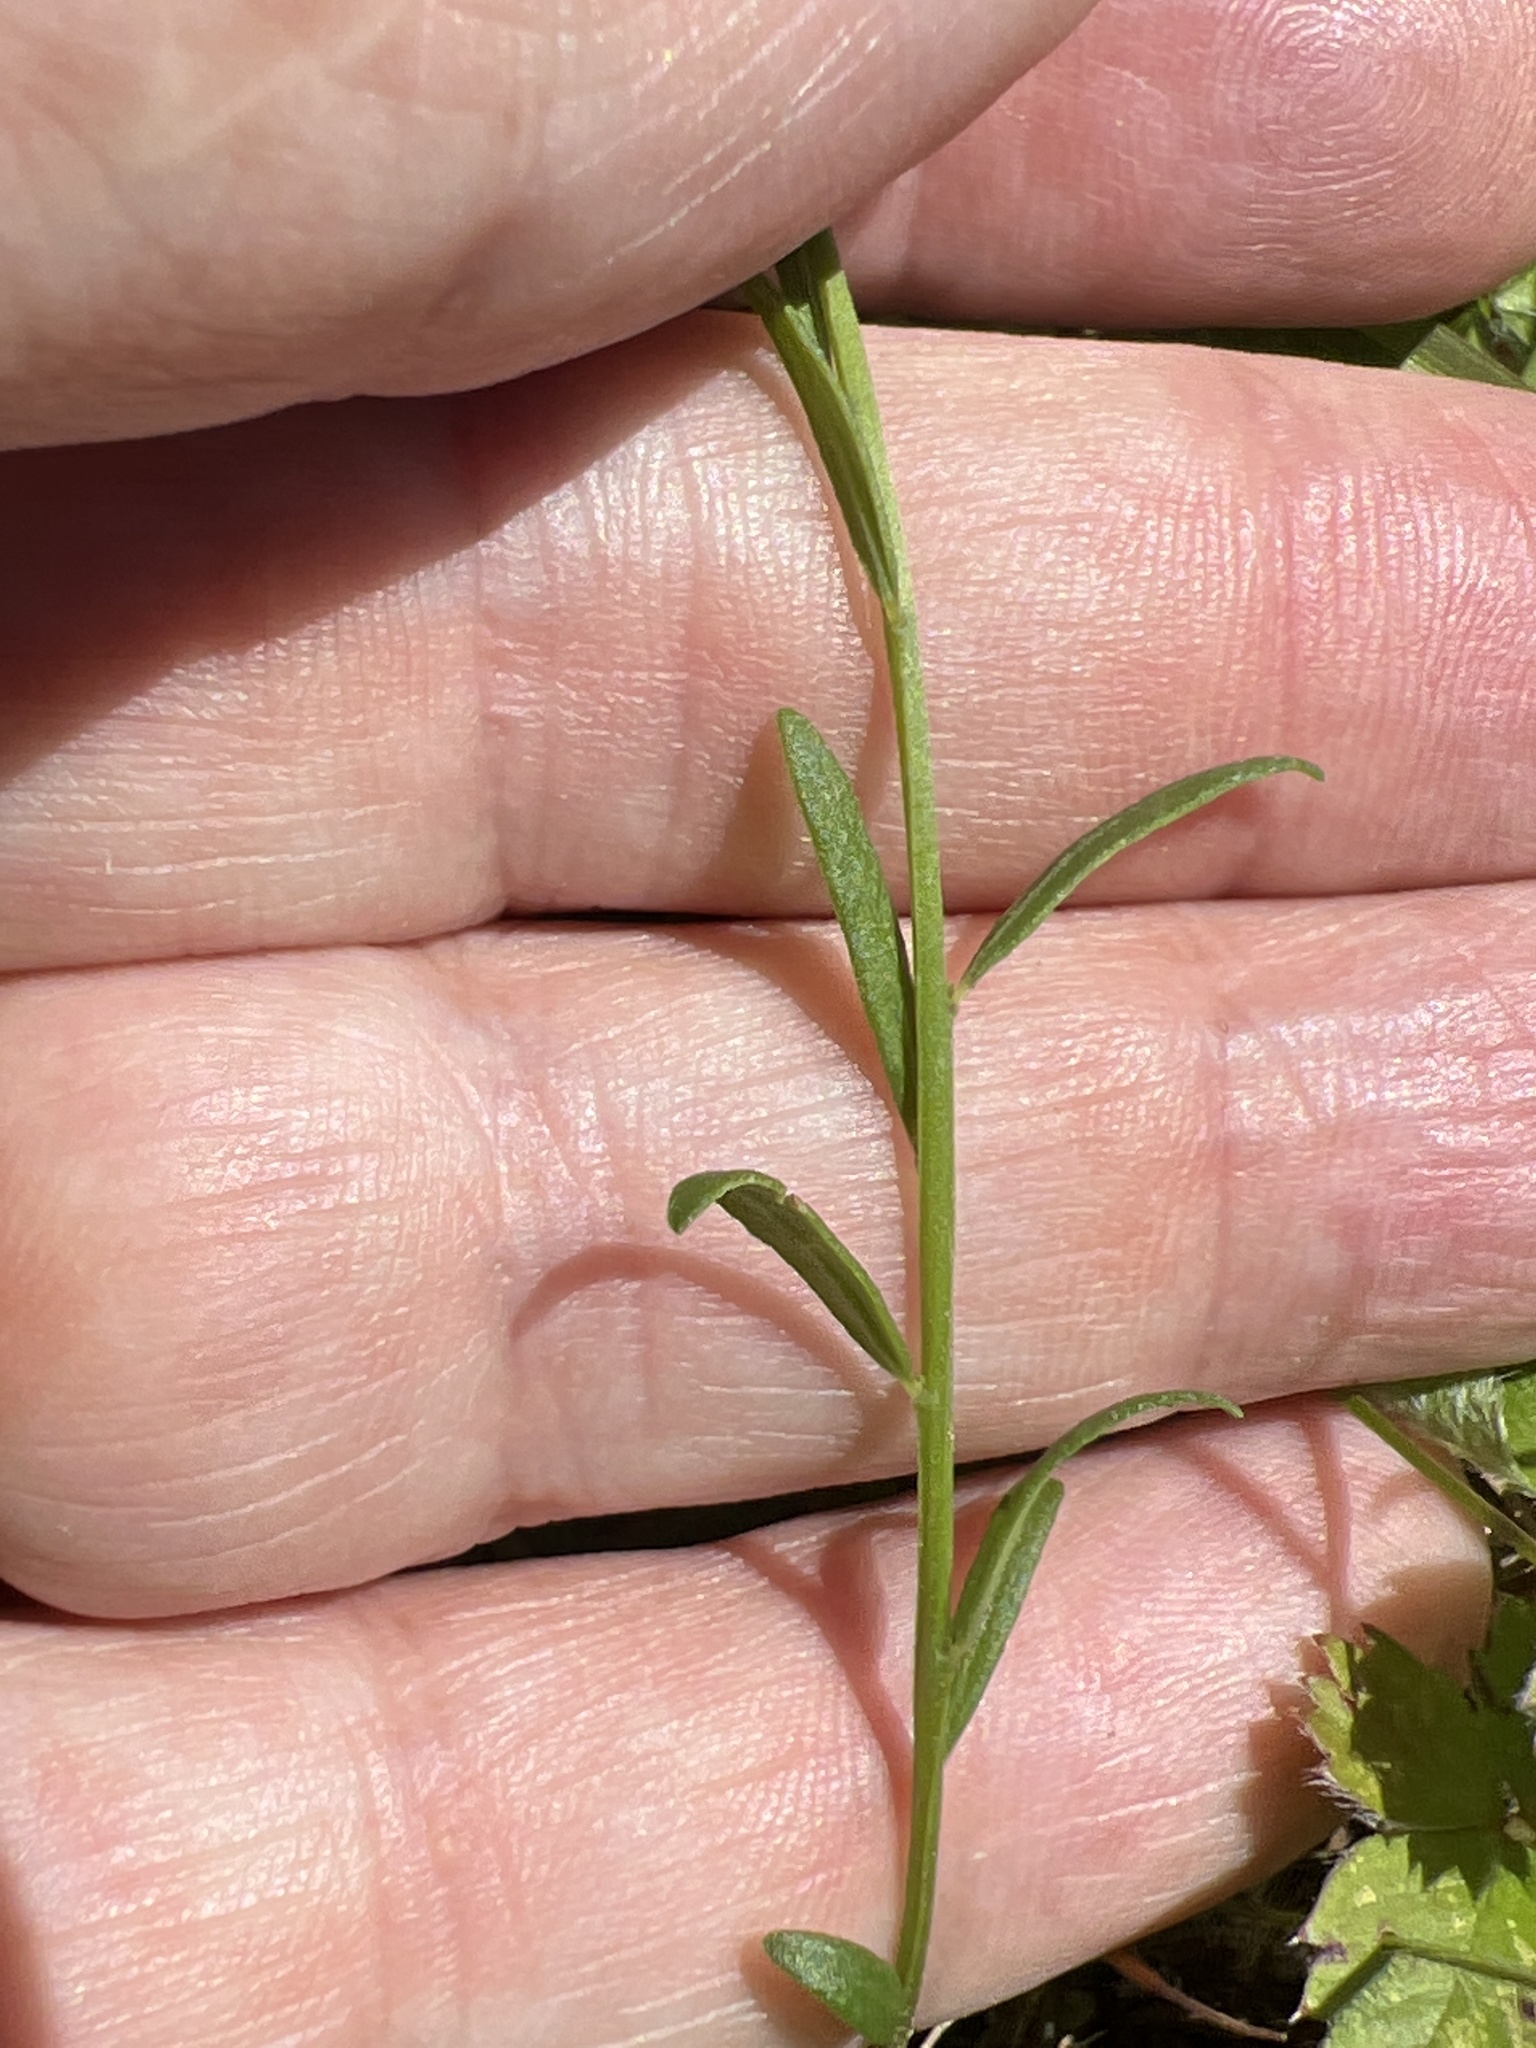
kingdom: Plantae
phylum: Tracheophyta
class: Magnoliopsida
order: Fabales
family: Polygalaceae
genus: Polygala
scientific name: Polygala curtissii
